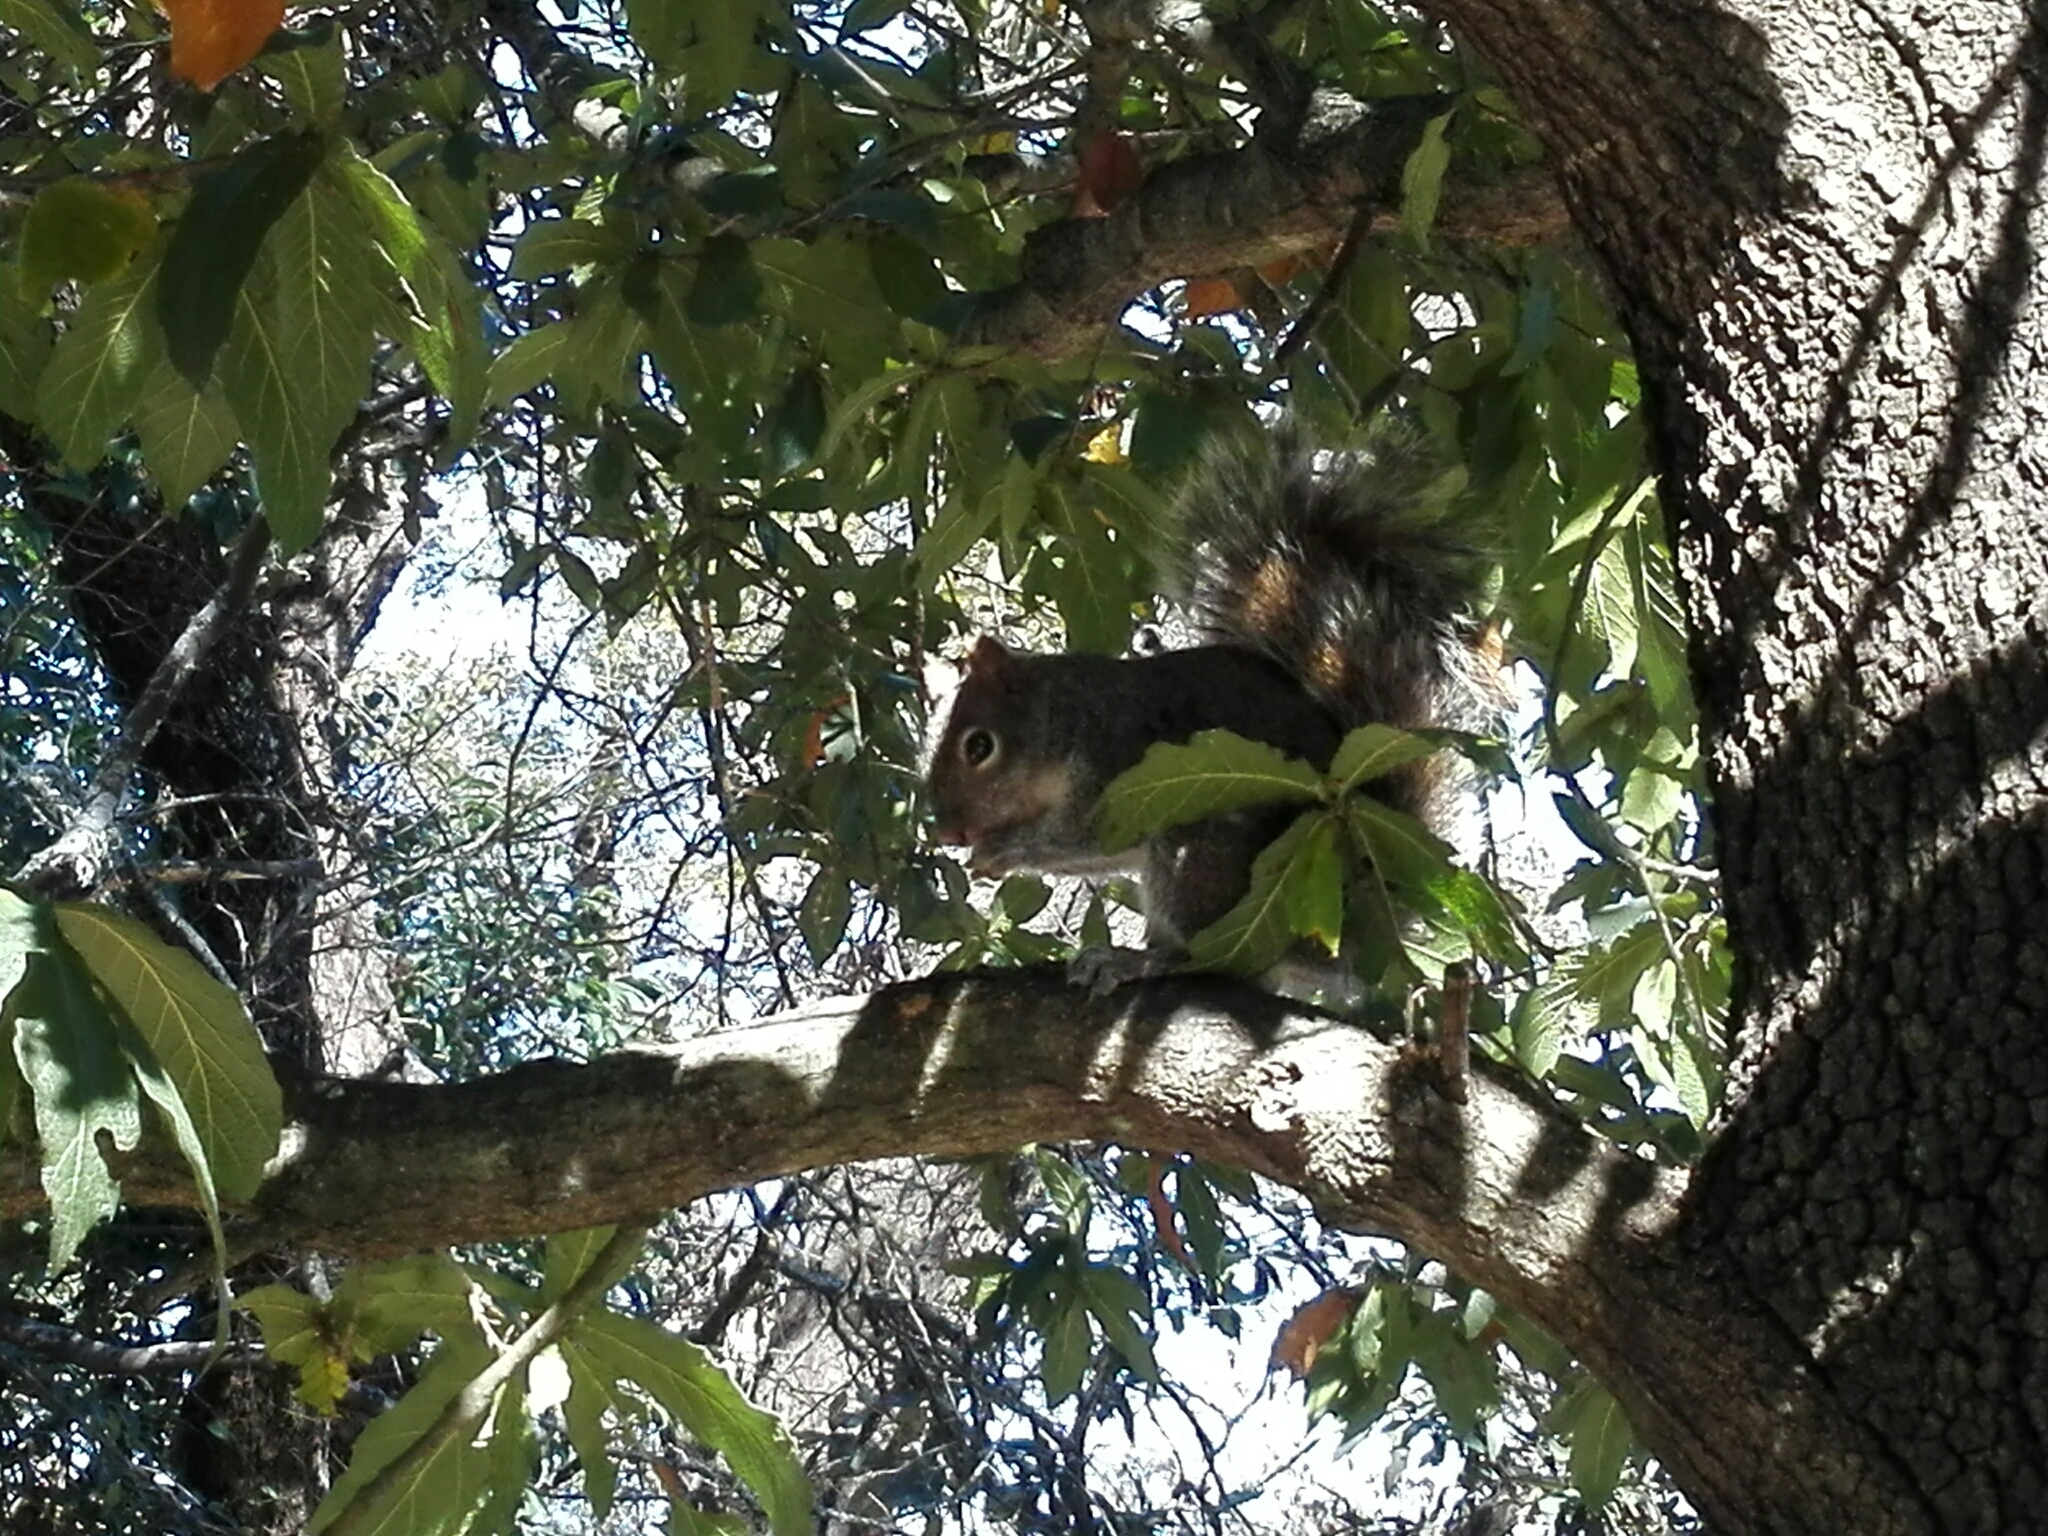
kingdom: Animalia
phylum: Chordata
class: Mammalia
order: Rodentia
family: Sciuridae
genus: Sciurus
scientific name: Sciurus alleni
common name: Allen's squirrel
